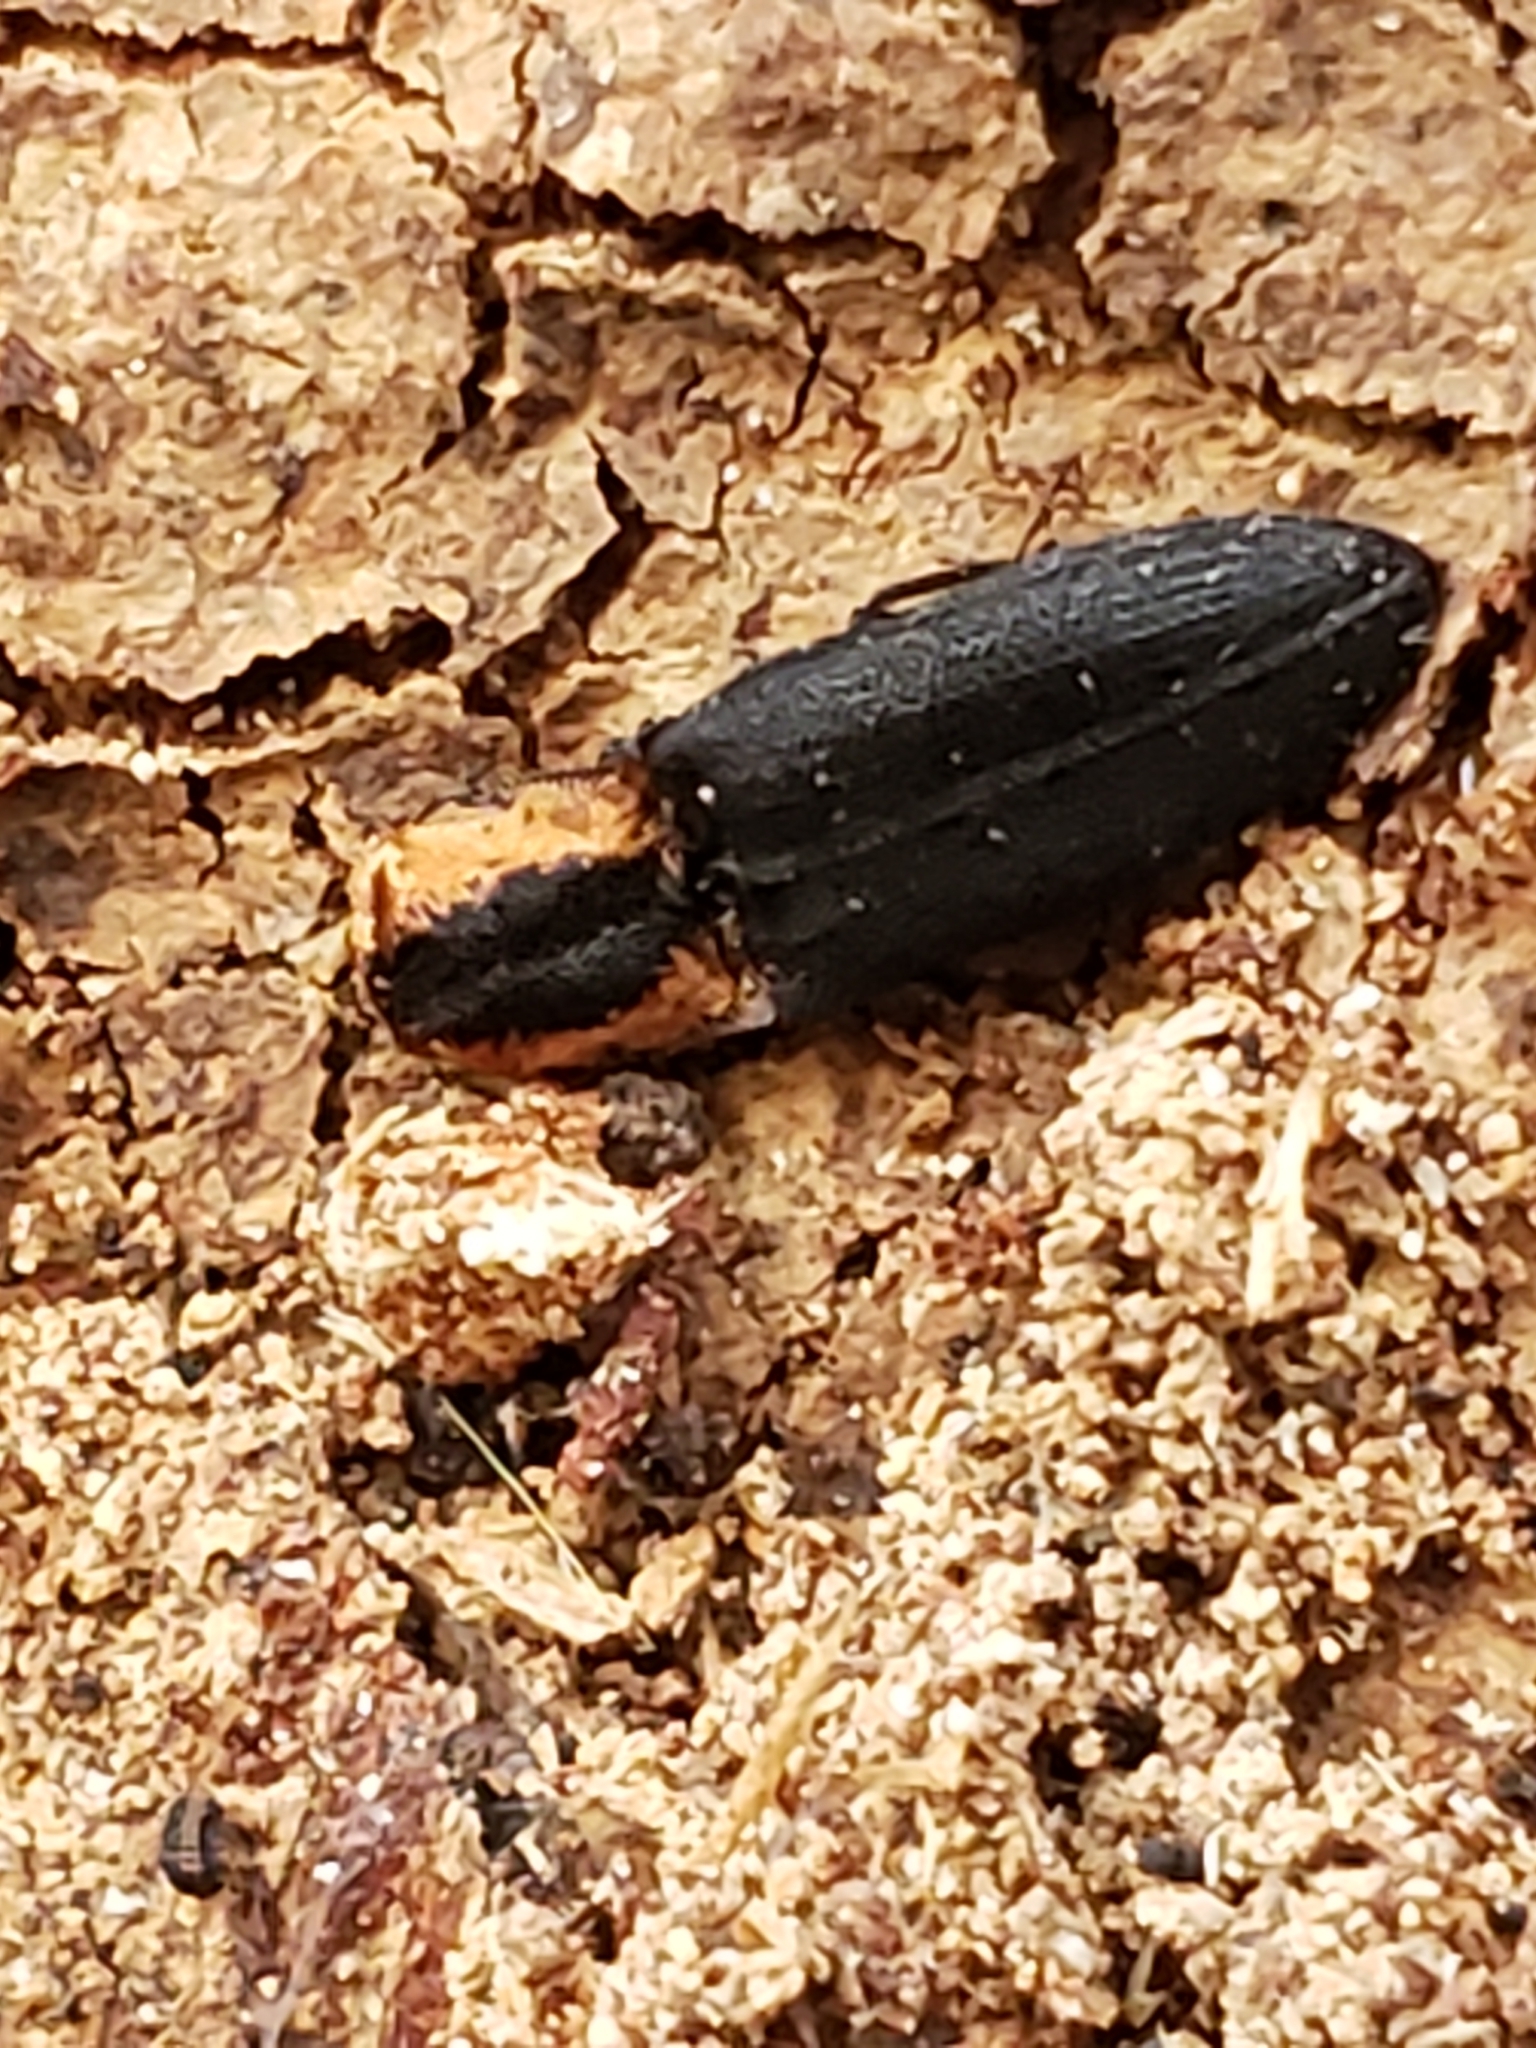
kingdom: Animalia
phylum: Arthropoda
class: Insecta
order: Coleoptera
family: Elateridae
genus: Lacon
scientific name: Lacon discoideus
